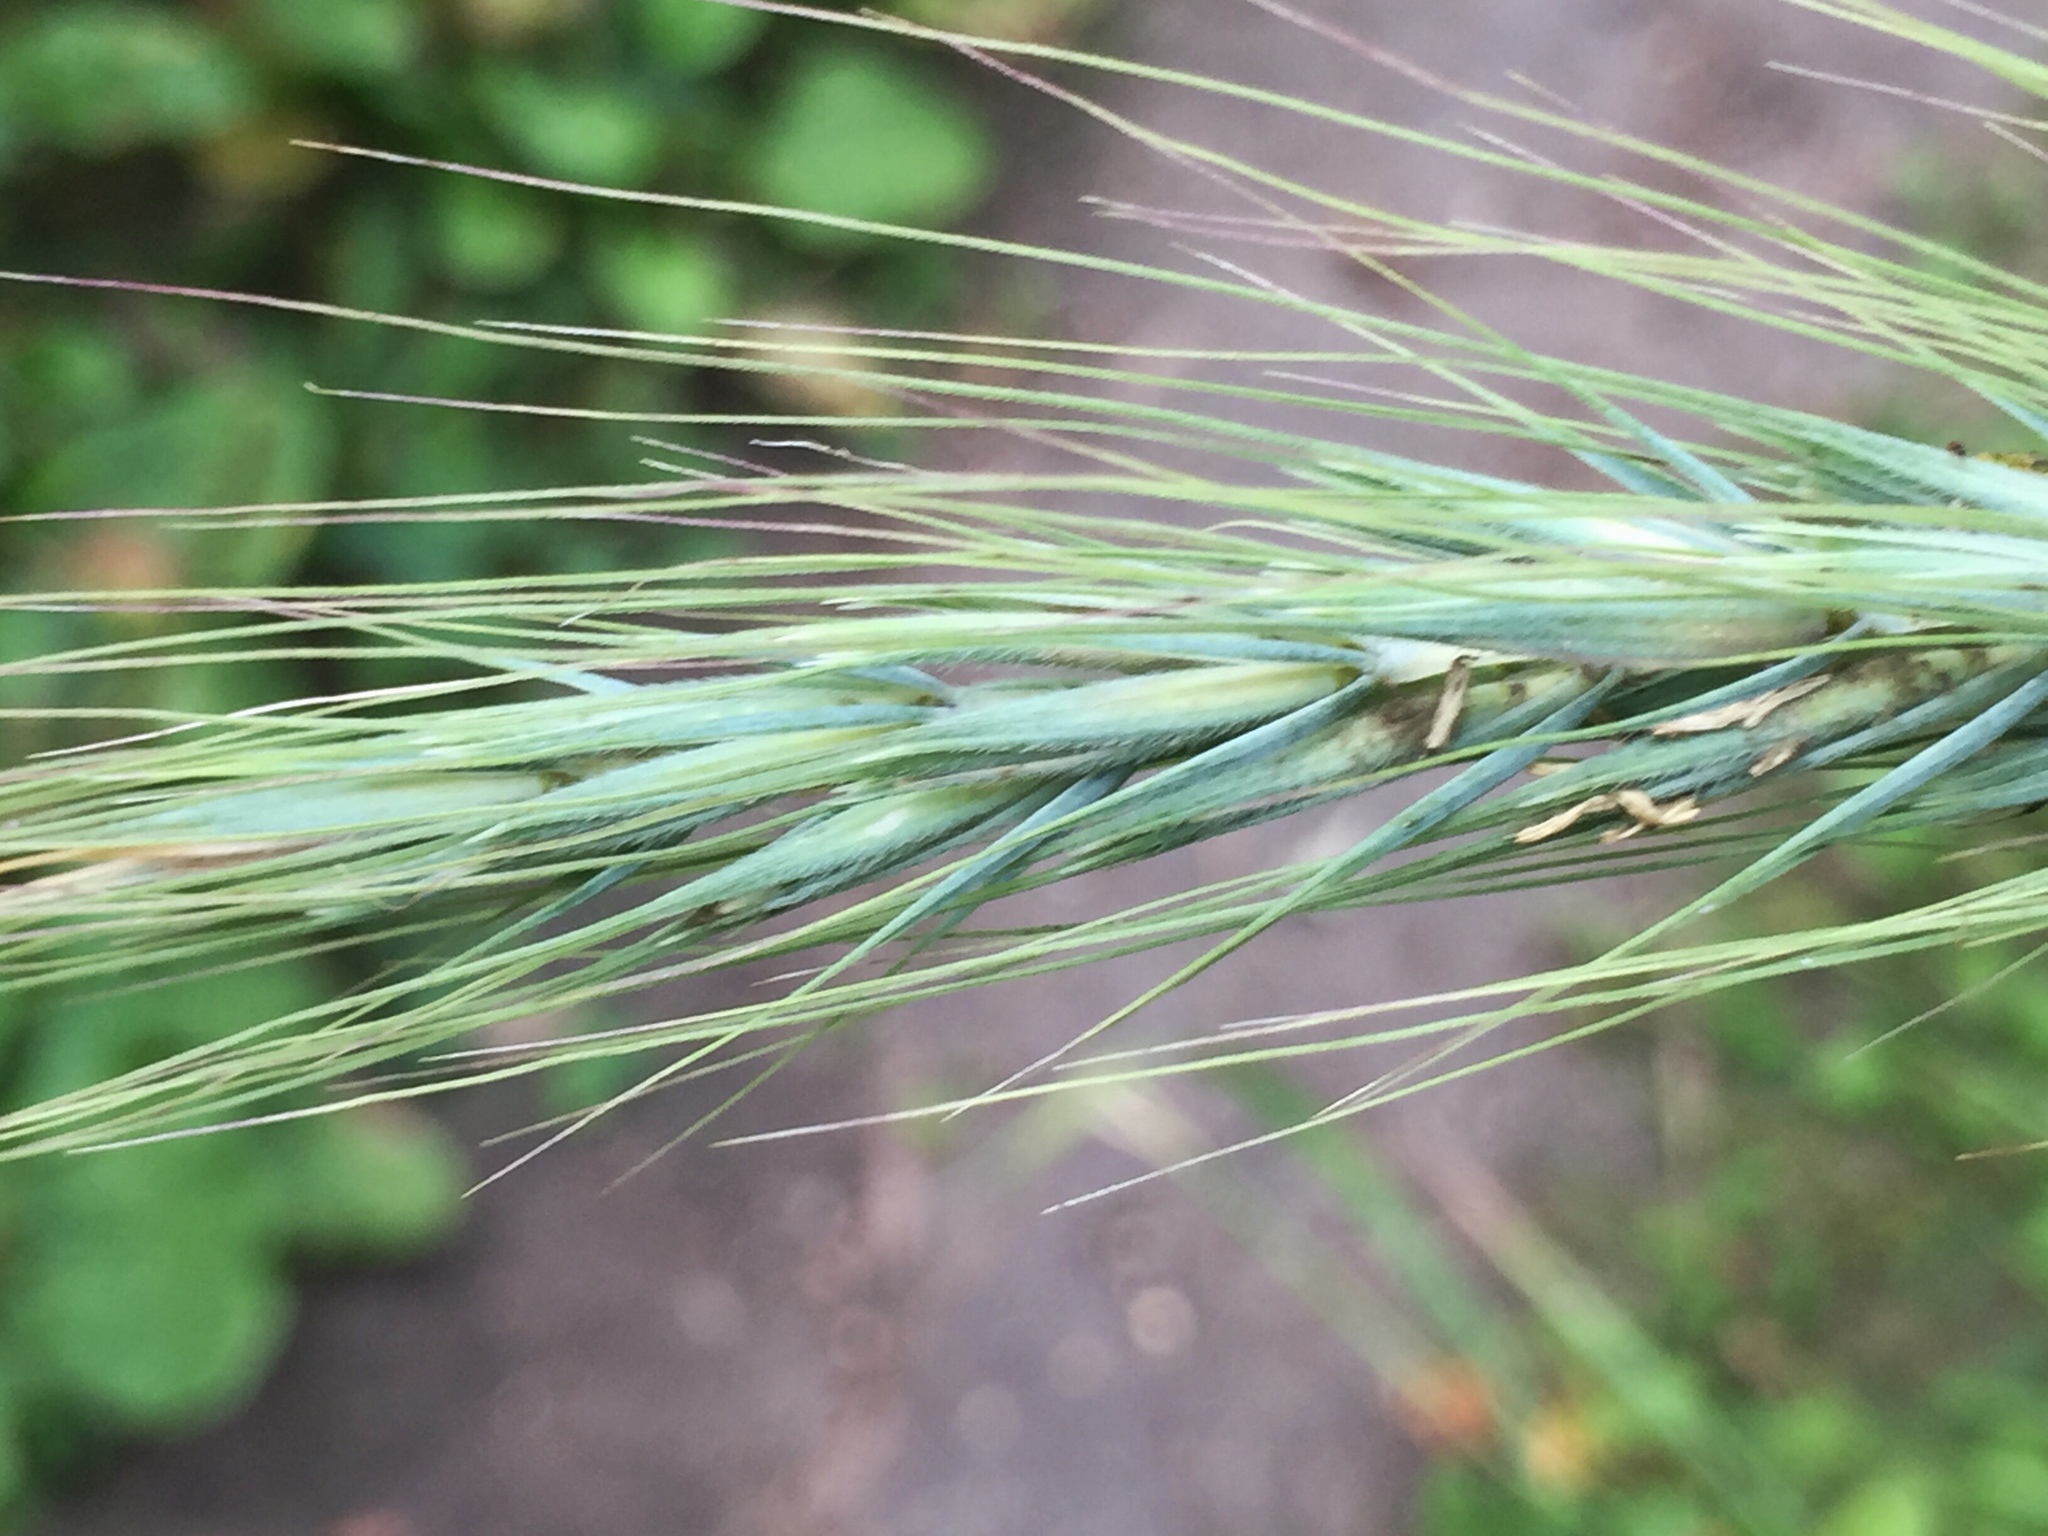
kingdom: Plantae
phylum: Tracheophyta
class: Liliopsida
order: Poales
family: Poaceae
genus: Elymus
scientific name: Elymus canadensis
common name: Canada wild rye
